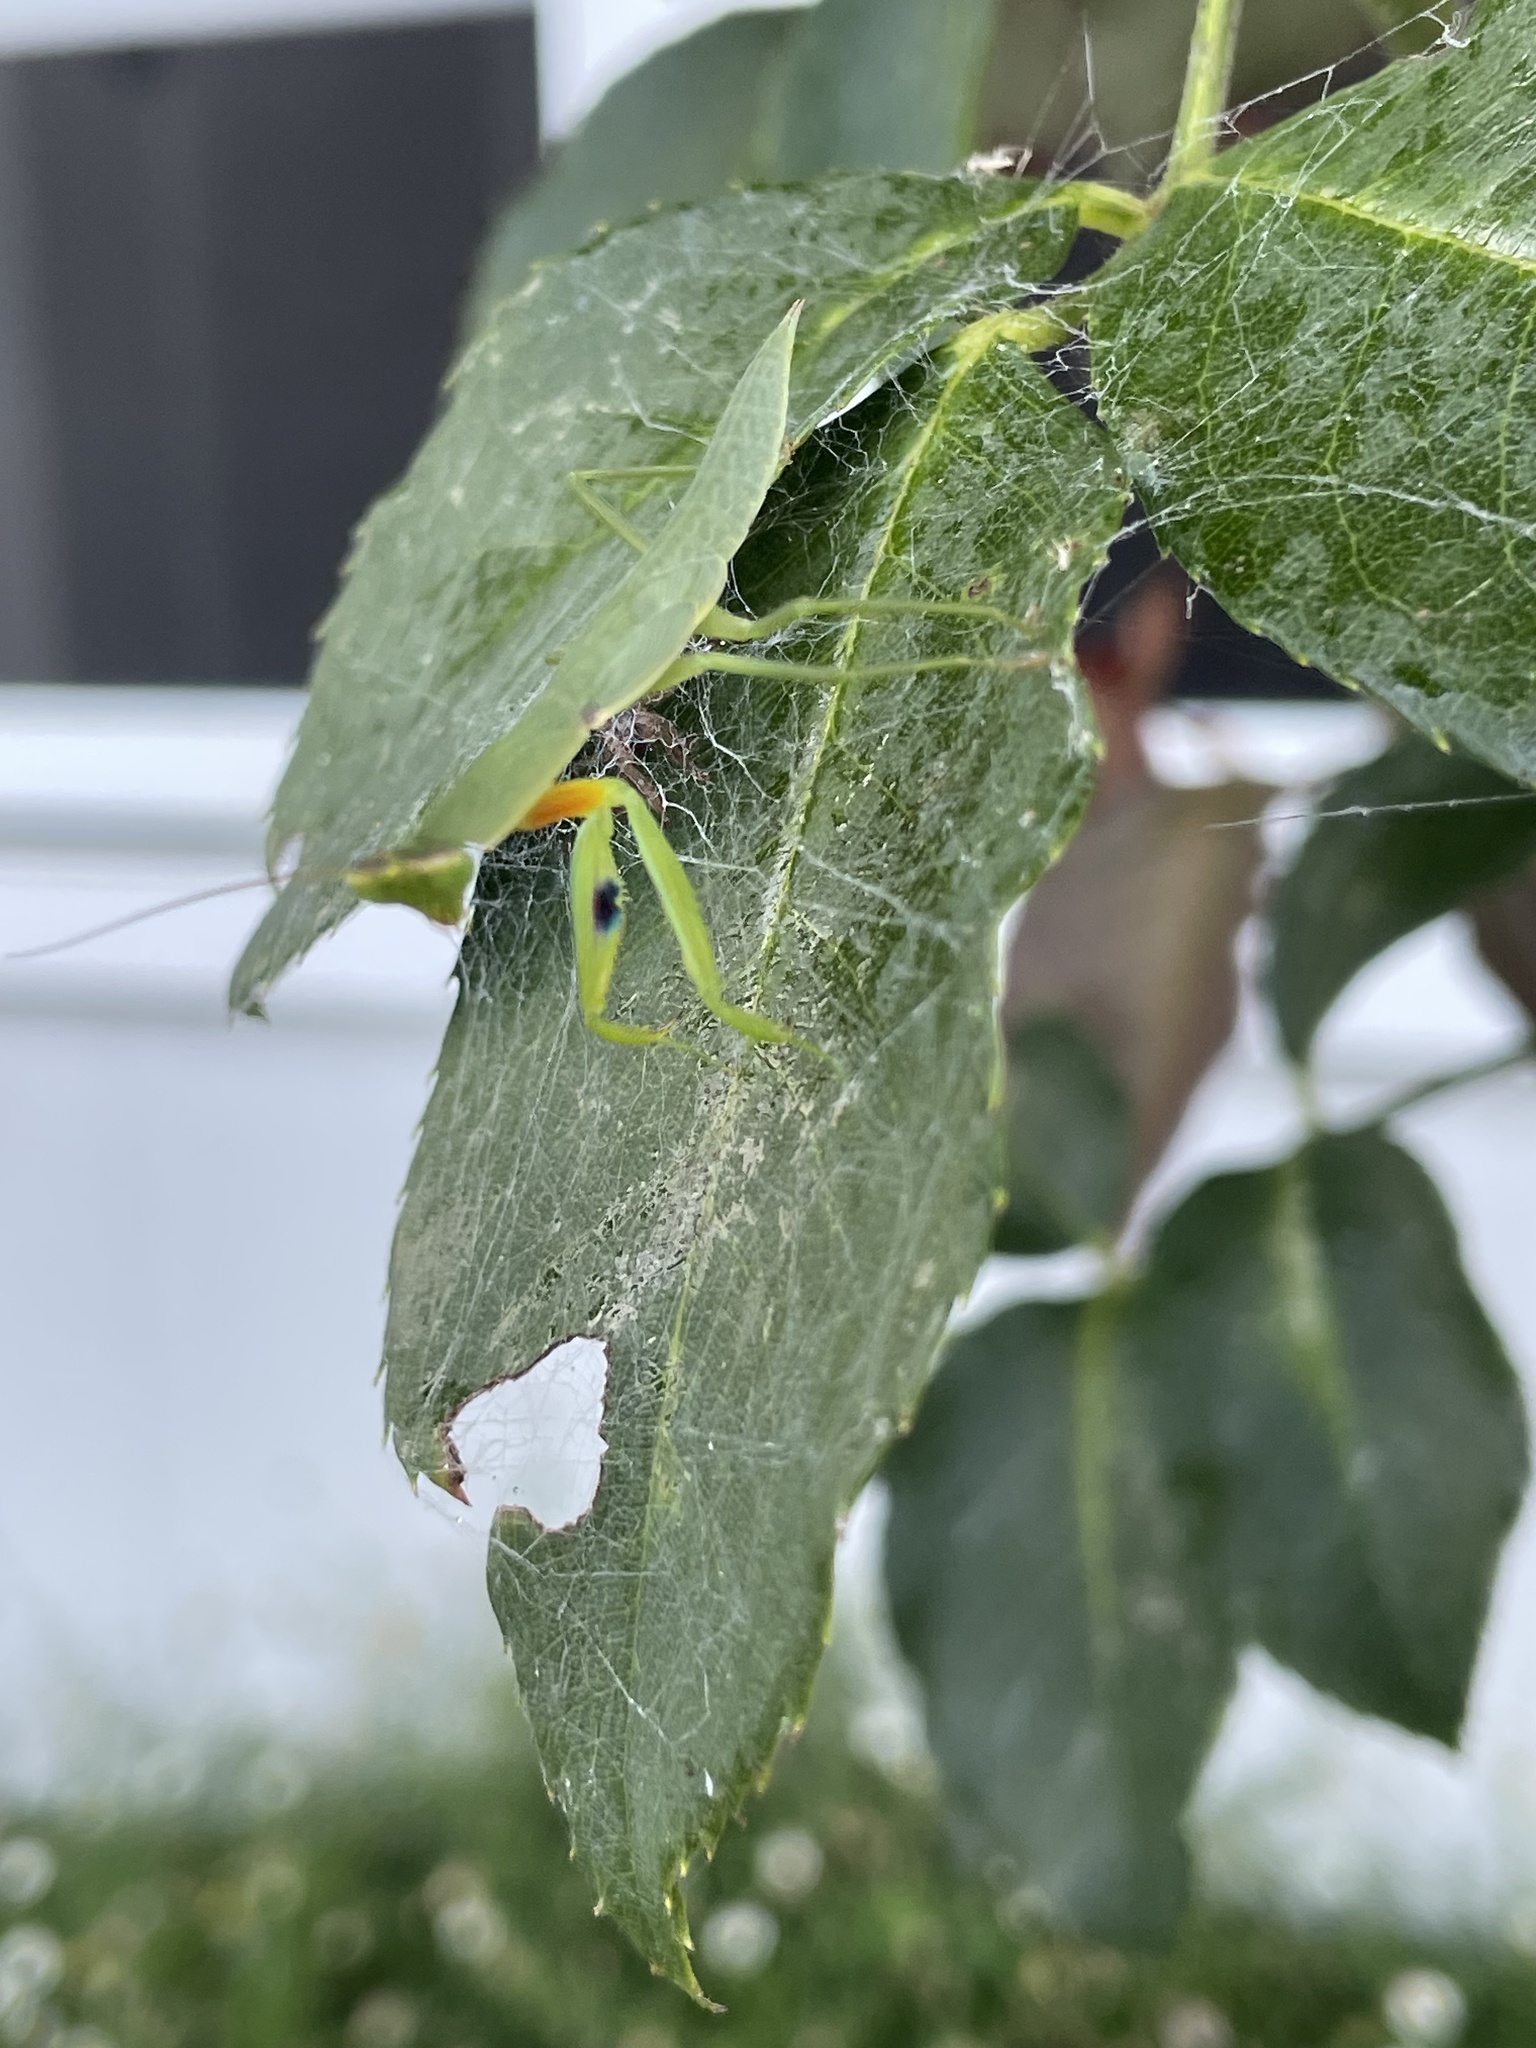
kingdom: Animalia
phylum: Arthropoda
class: Insecta
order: Mantodea
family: Mantidae
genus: Orthodera
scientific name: Orthodera ministralis
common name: Mantis
